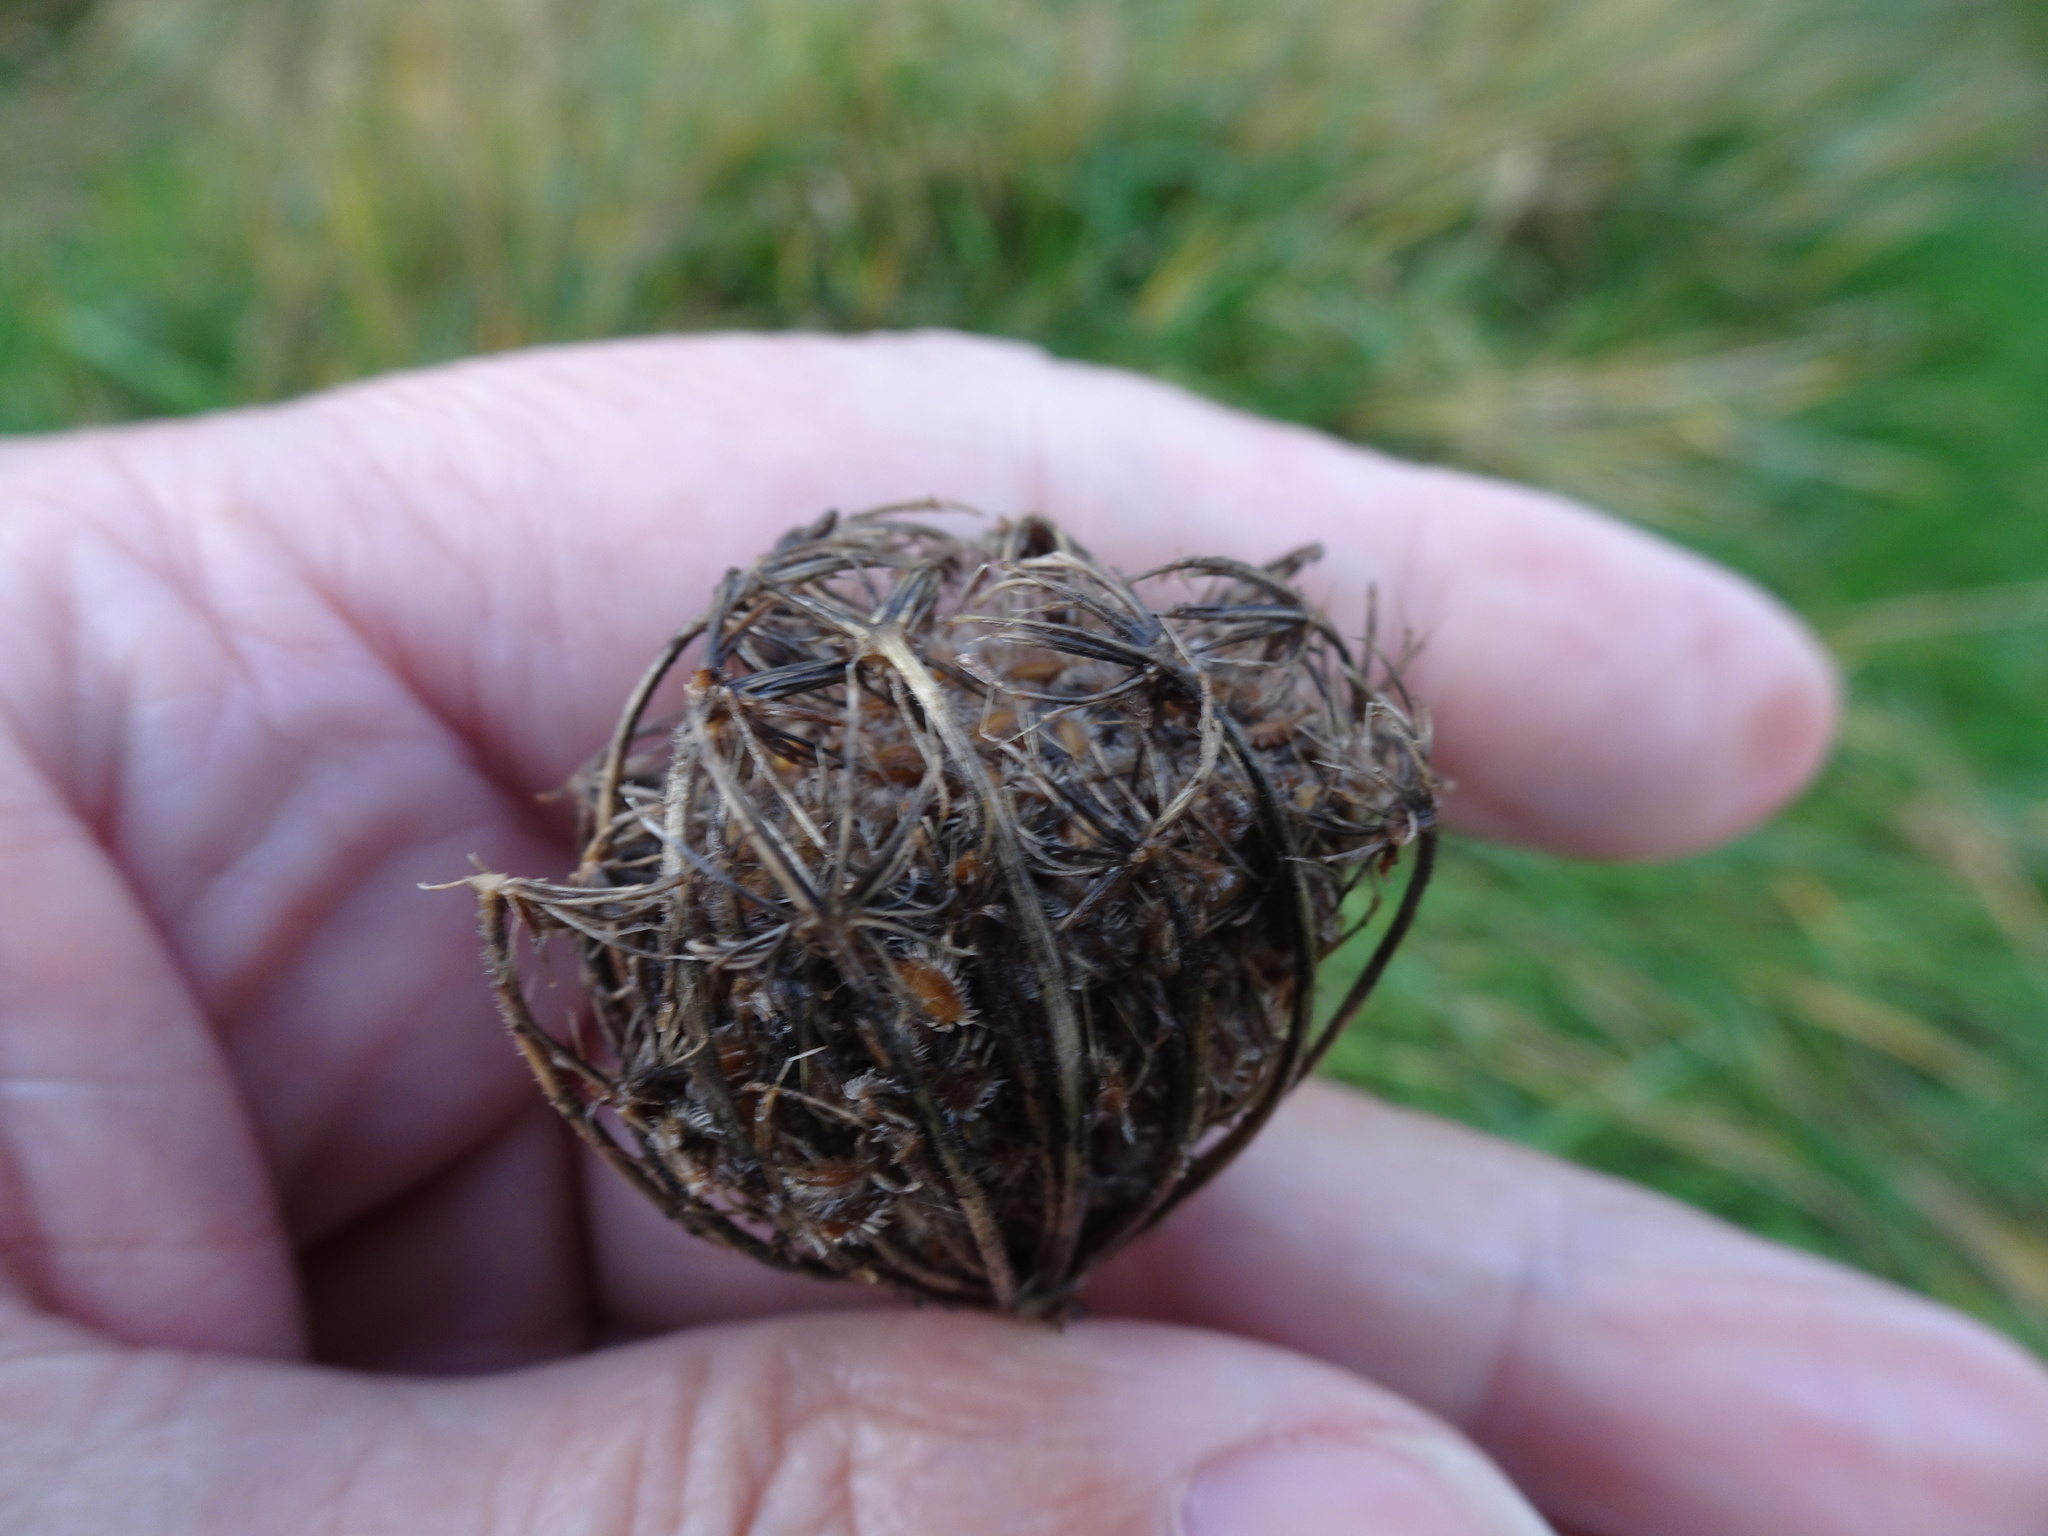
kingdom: Plantae
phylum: Tracheophyta
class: Magnoliopsida
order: Apiales
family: Apiaceae
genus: Daucus
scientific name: Daucus carota
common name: Wild carrot
